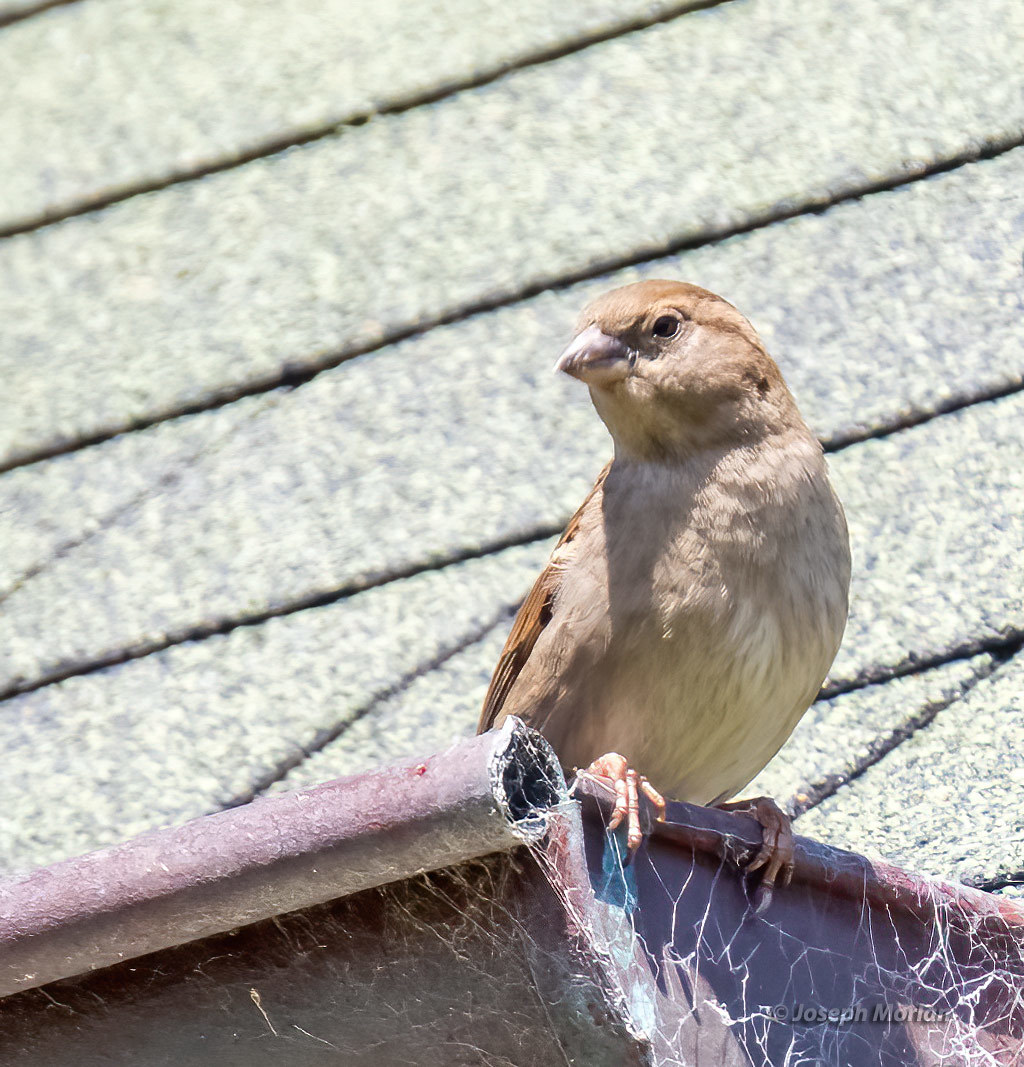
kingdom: Animalia
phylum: Chordata
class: Aves
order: Passeriformes
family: Passeridae
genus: Passer
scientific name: Passer domesticus
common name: House sparrow
